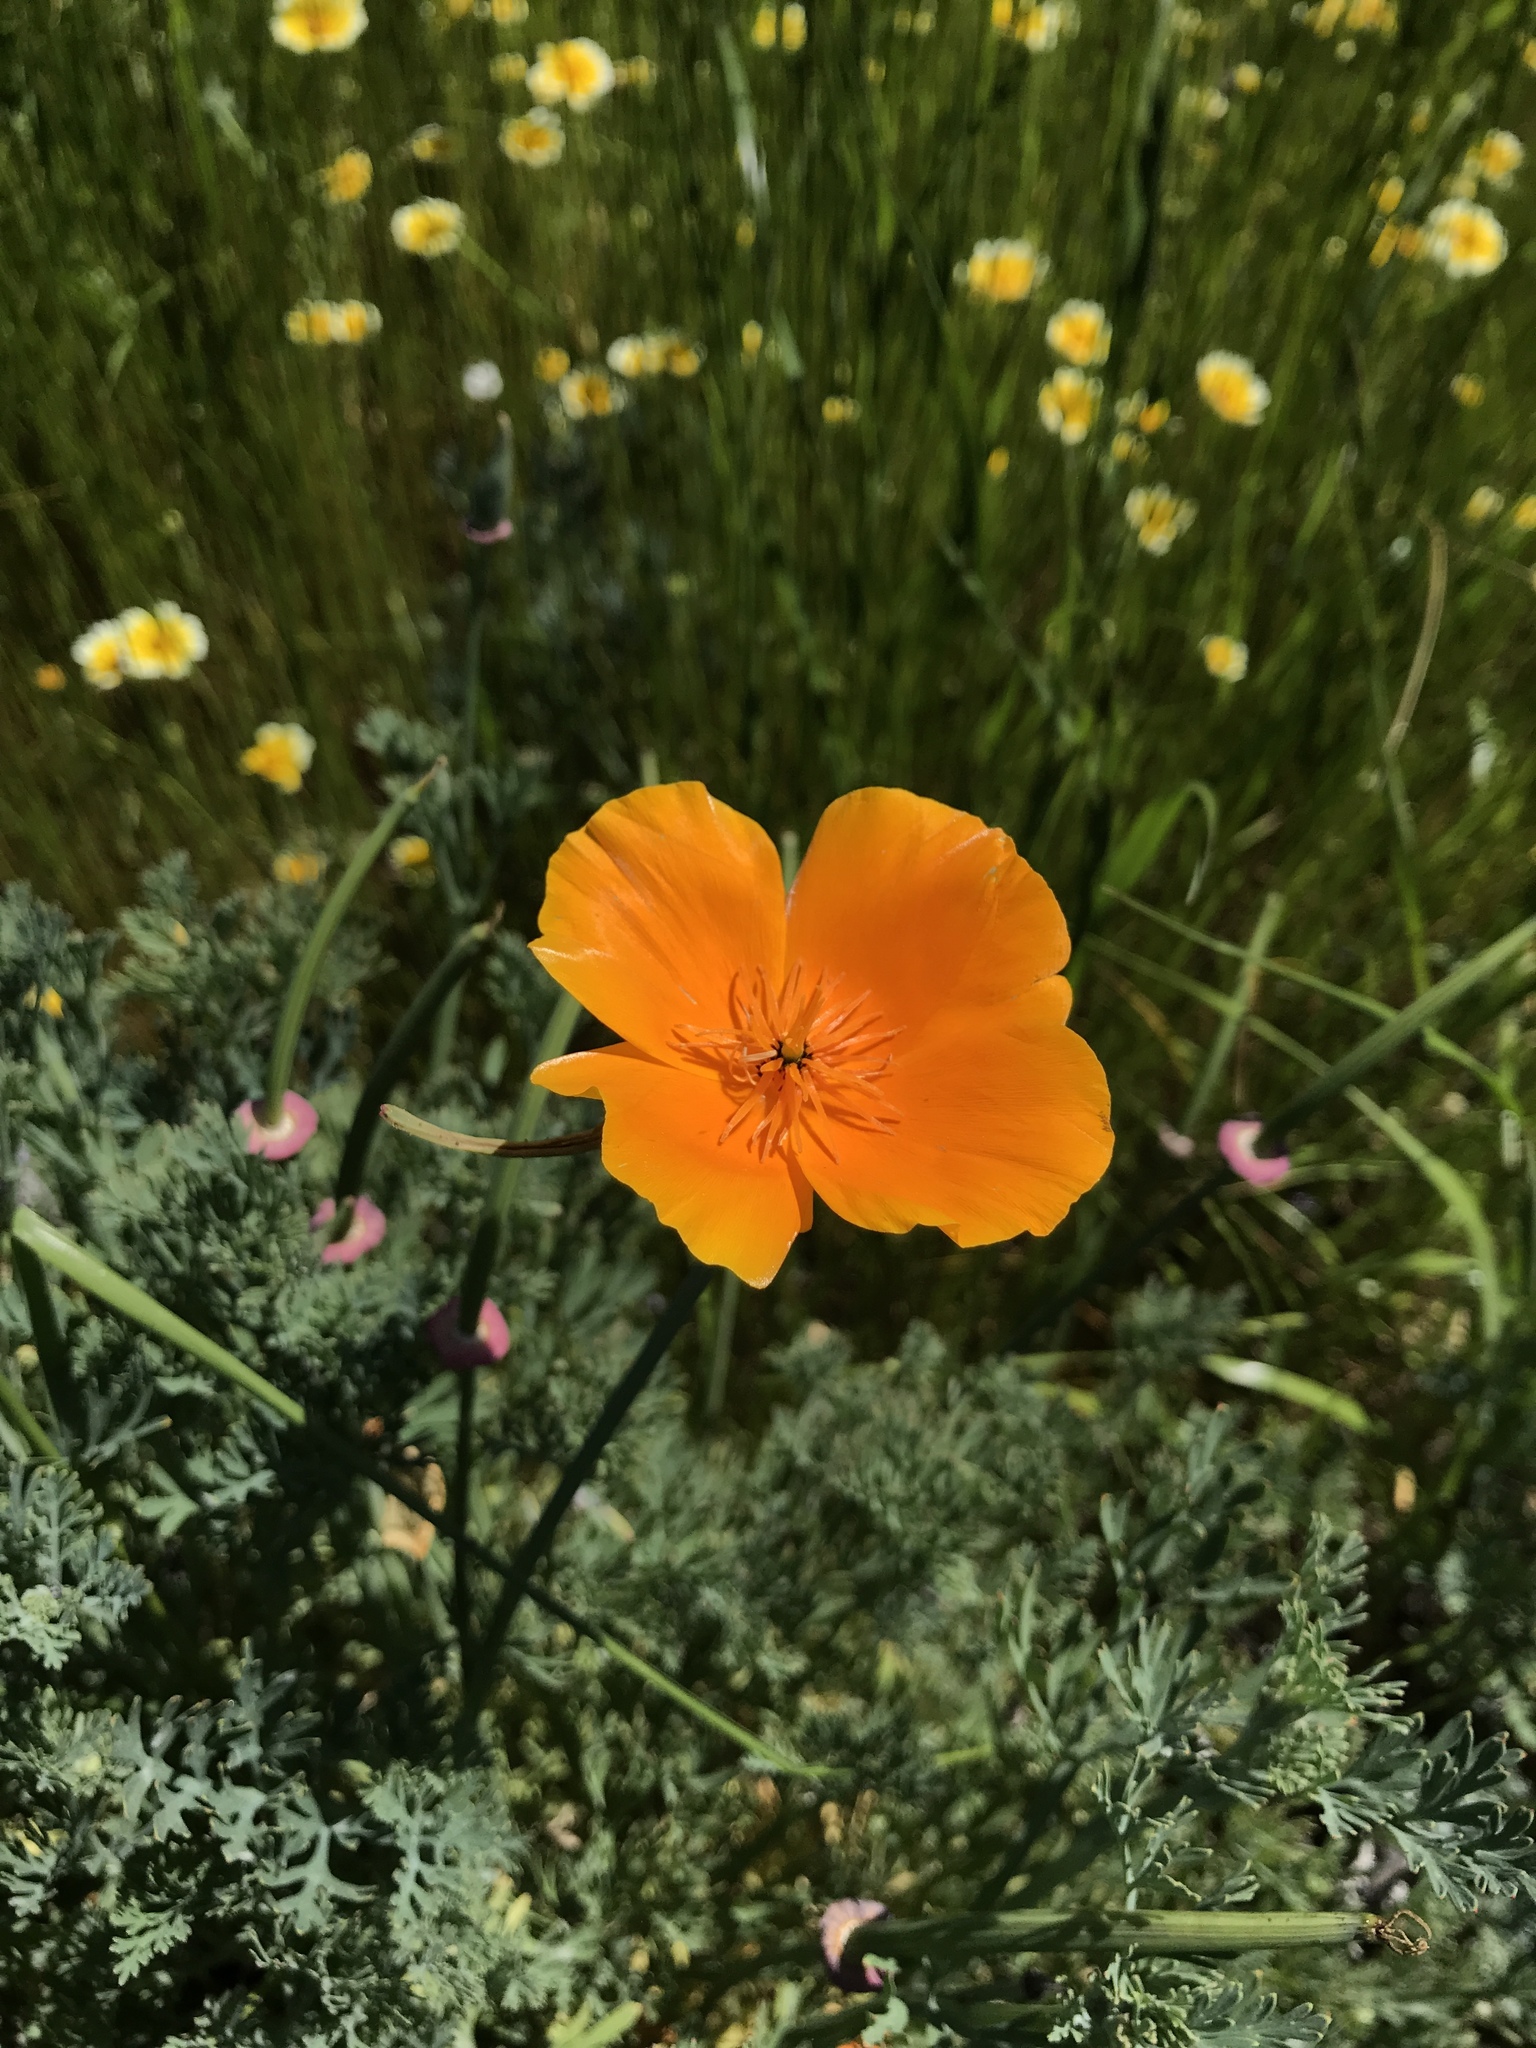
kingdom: Plantae
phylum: Tracheophyta
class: Magnoliopsida
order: Ranunculales
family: Papaveraceae
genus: Eschscholzia
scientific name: Eschscholzia californica
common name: California poppy
